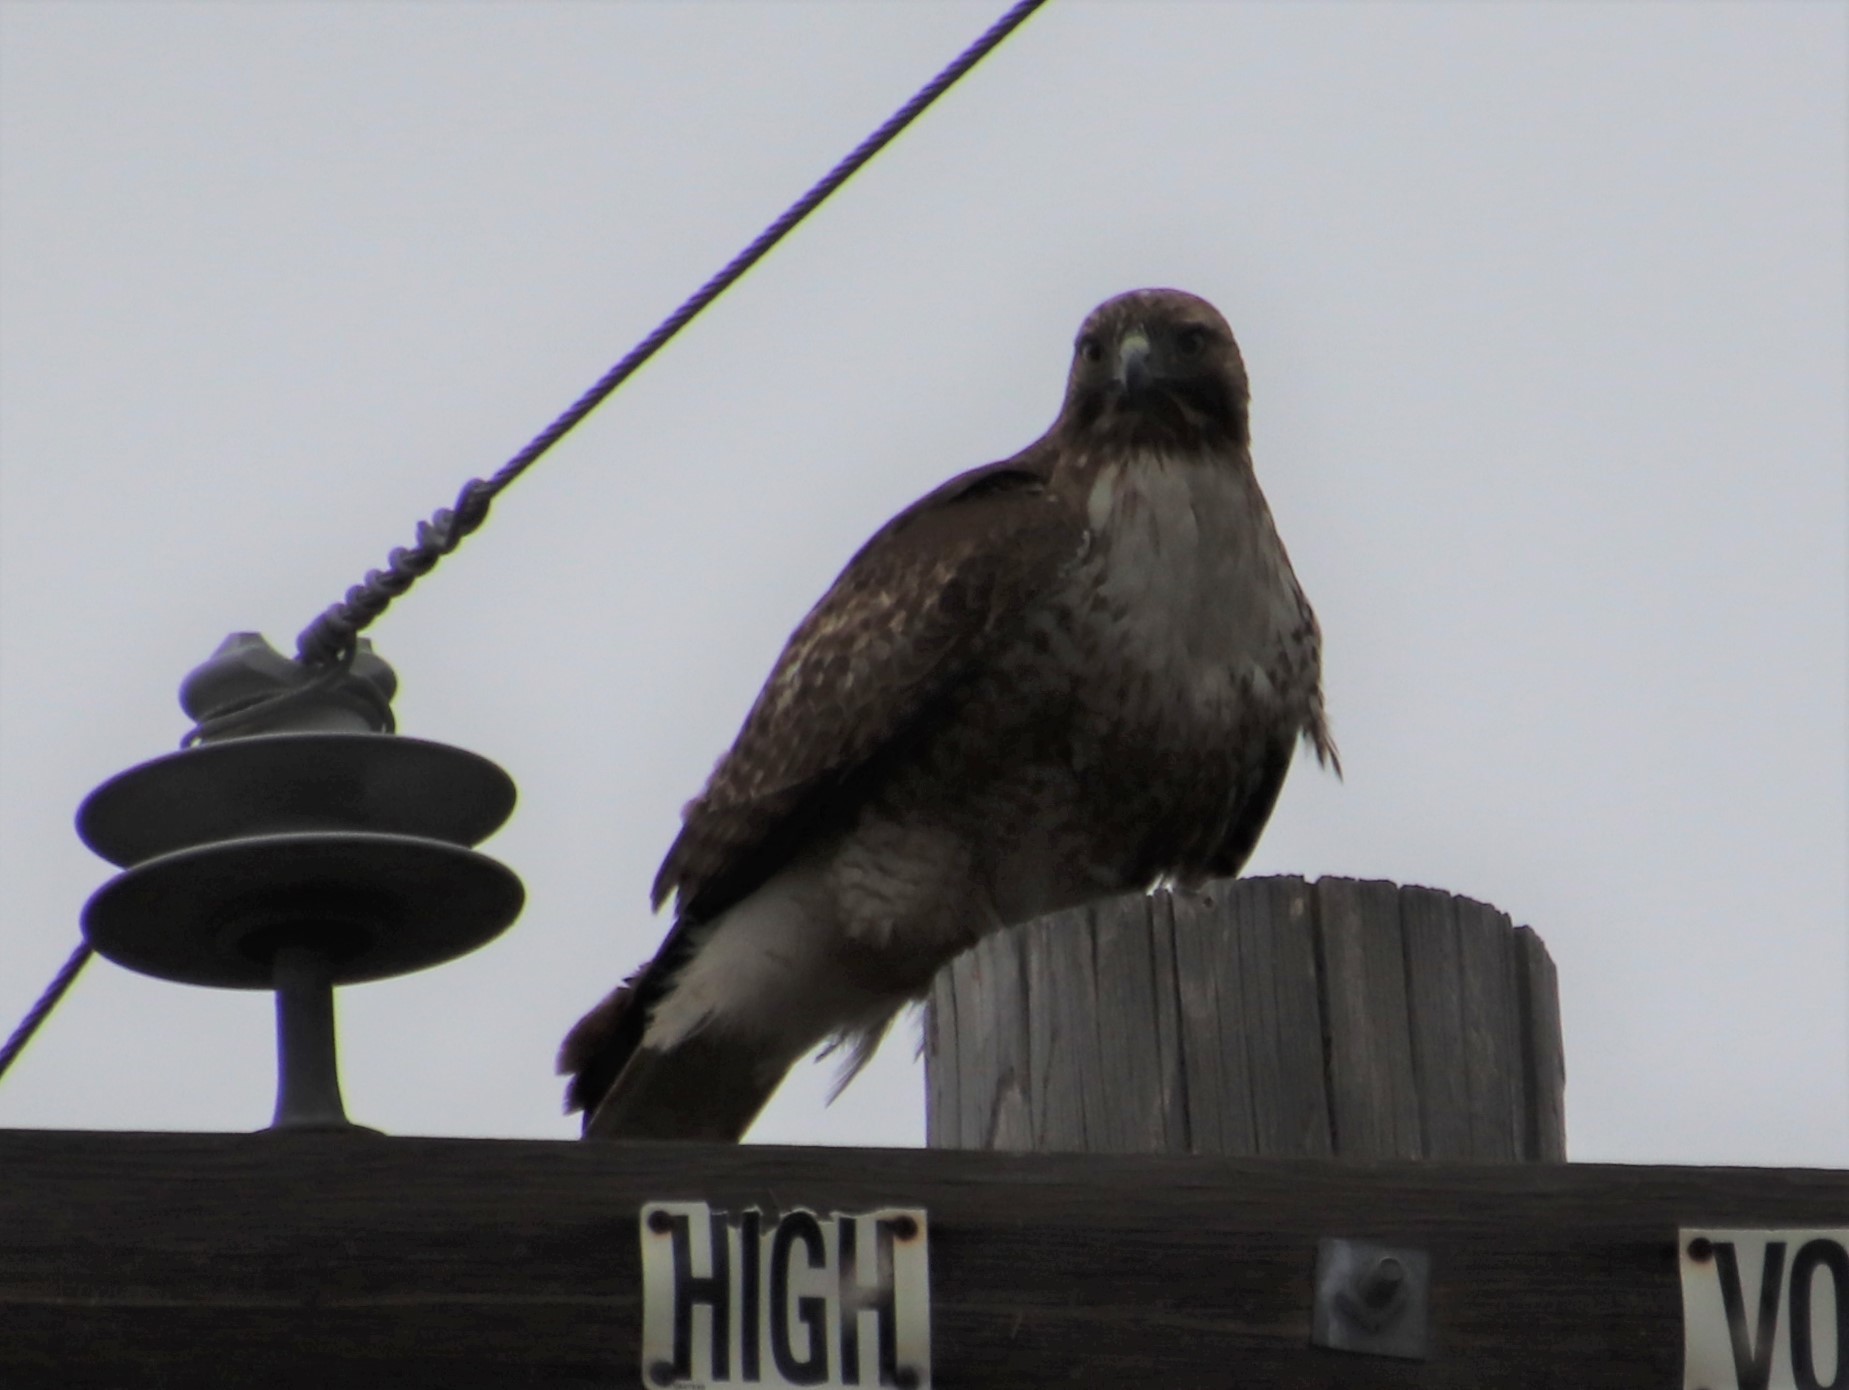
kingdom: Animalia
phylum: Chordata
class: Aves
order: Accipitriformes
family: Accipitridae
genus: Buteo
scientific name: Buteo jamaicensis
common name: Red-tailed hawk
